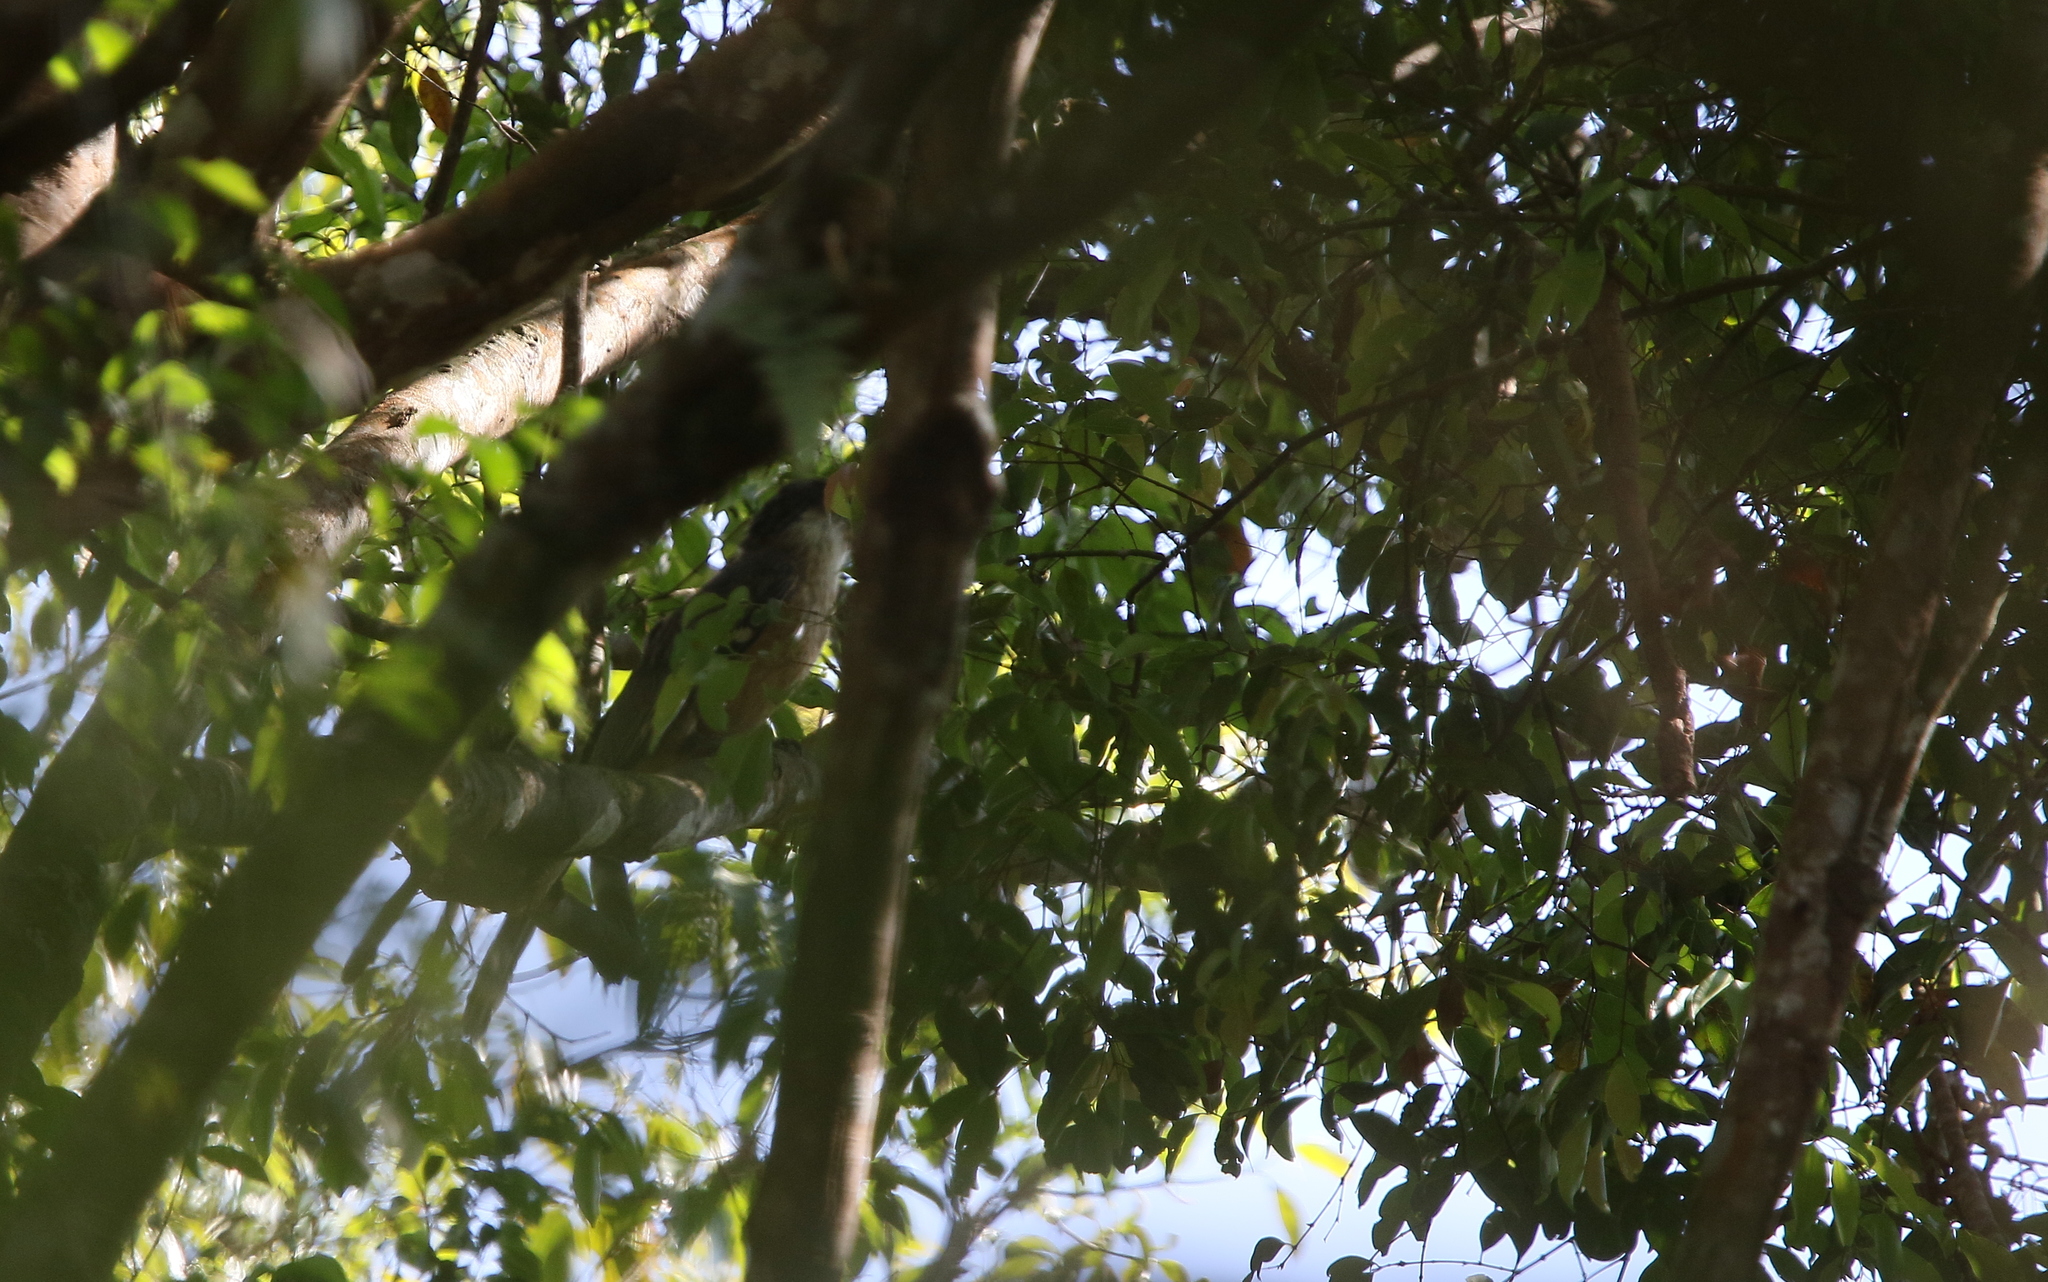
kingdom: Animalia
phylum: Chordata
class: Aves
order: Bucerotiformes
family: Bucerotidae
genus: Anorrhinus
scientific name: Anorrhinus austeni
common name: Austen's brown hornbill
